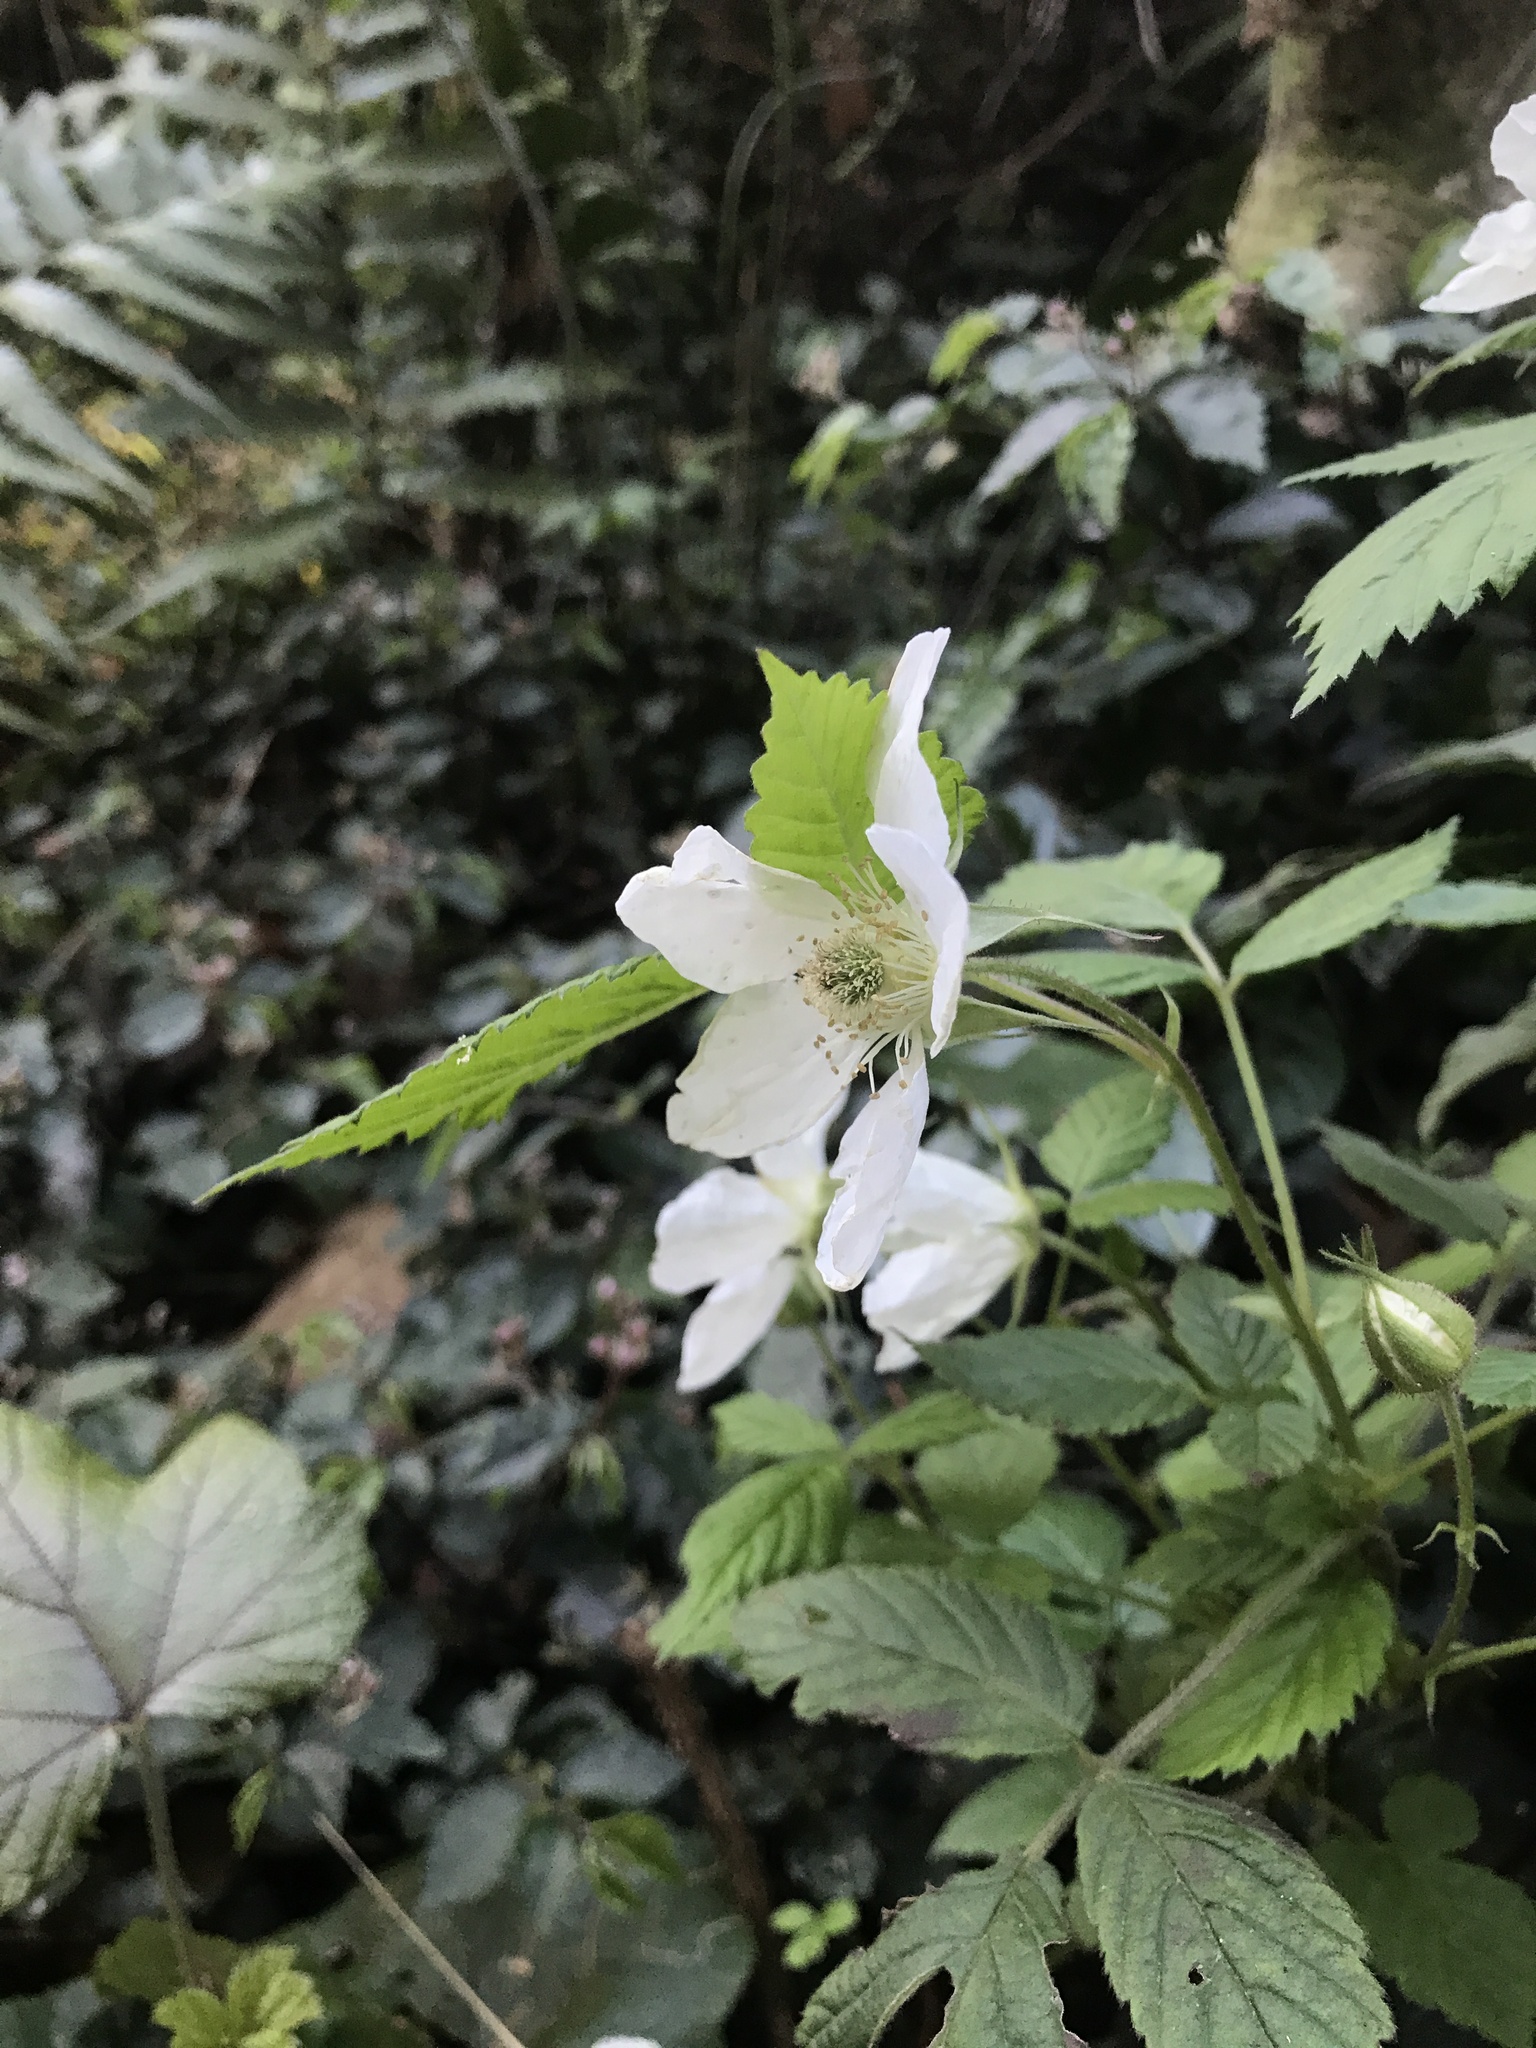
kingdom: Plantae
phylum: Tracheophyta
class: Magnoliopsida
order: Rosales
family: Rosaceae
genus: Rubus
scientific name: Rubus hirsutus
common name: Hirsute raspberry
